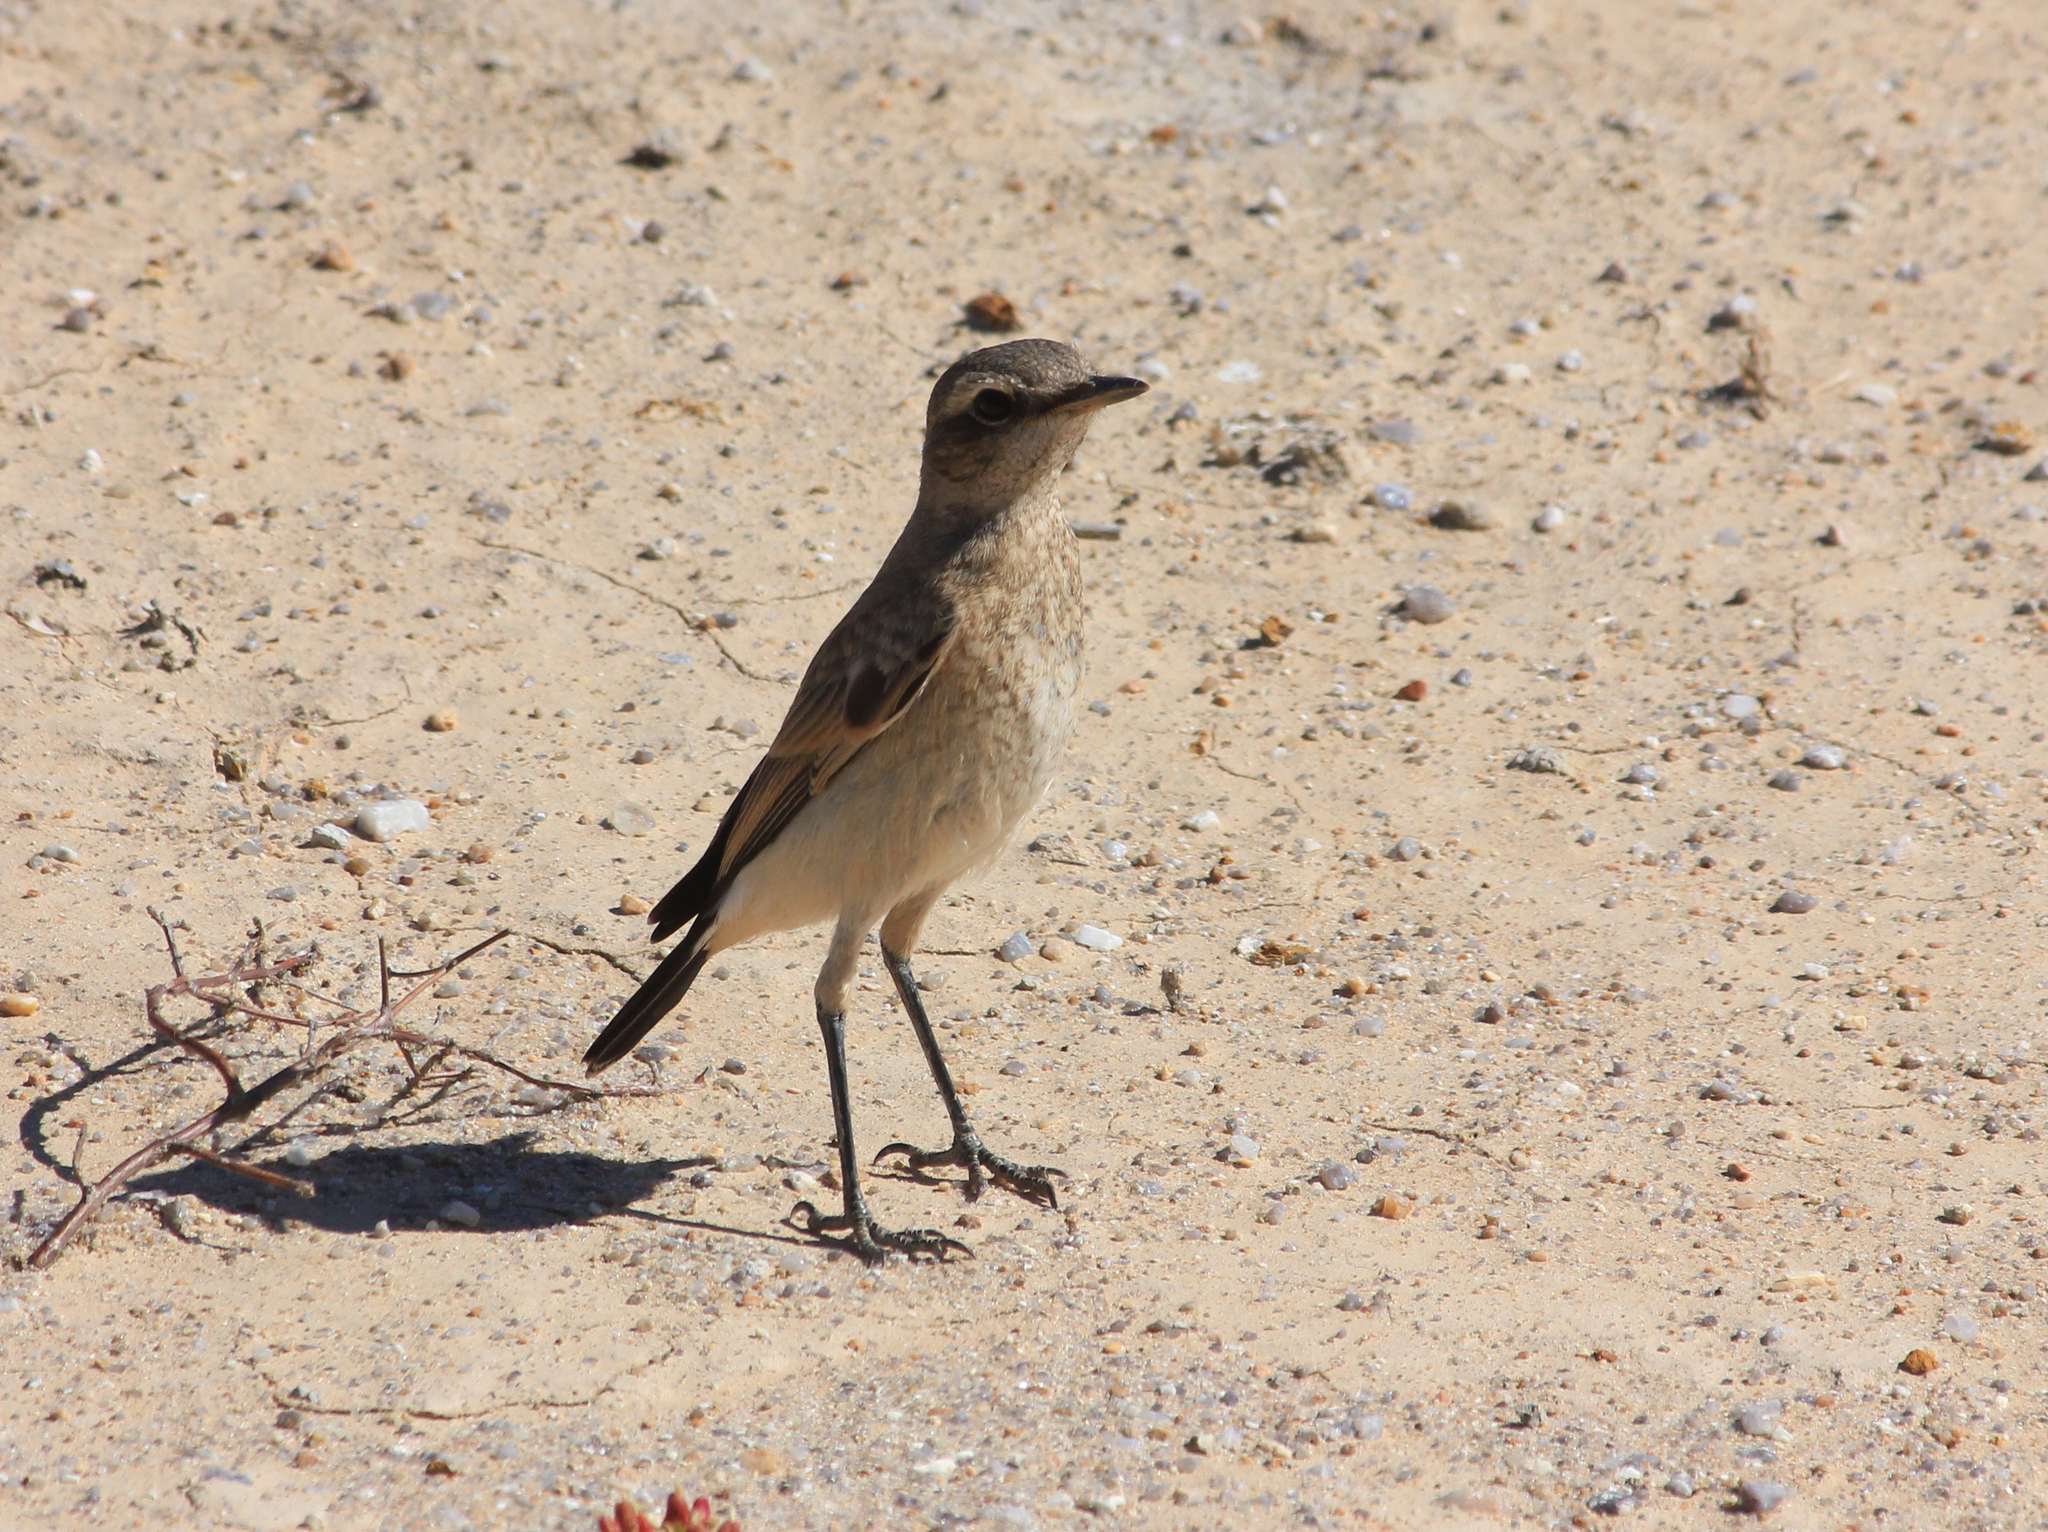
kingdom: Animalia
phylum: Chordata
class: Aves
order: Passeriformes
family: Muscicapidae
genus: Oenanthe
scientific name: Oenanthe pileata
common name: Capped wheatear
